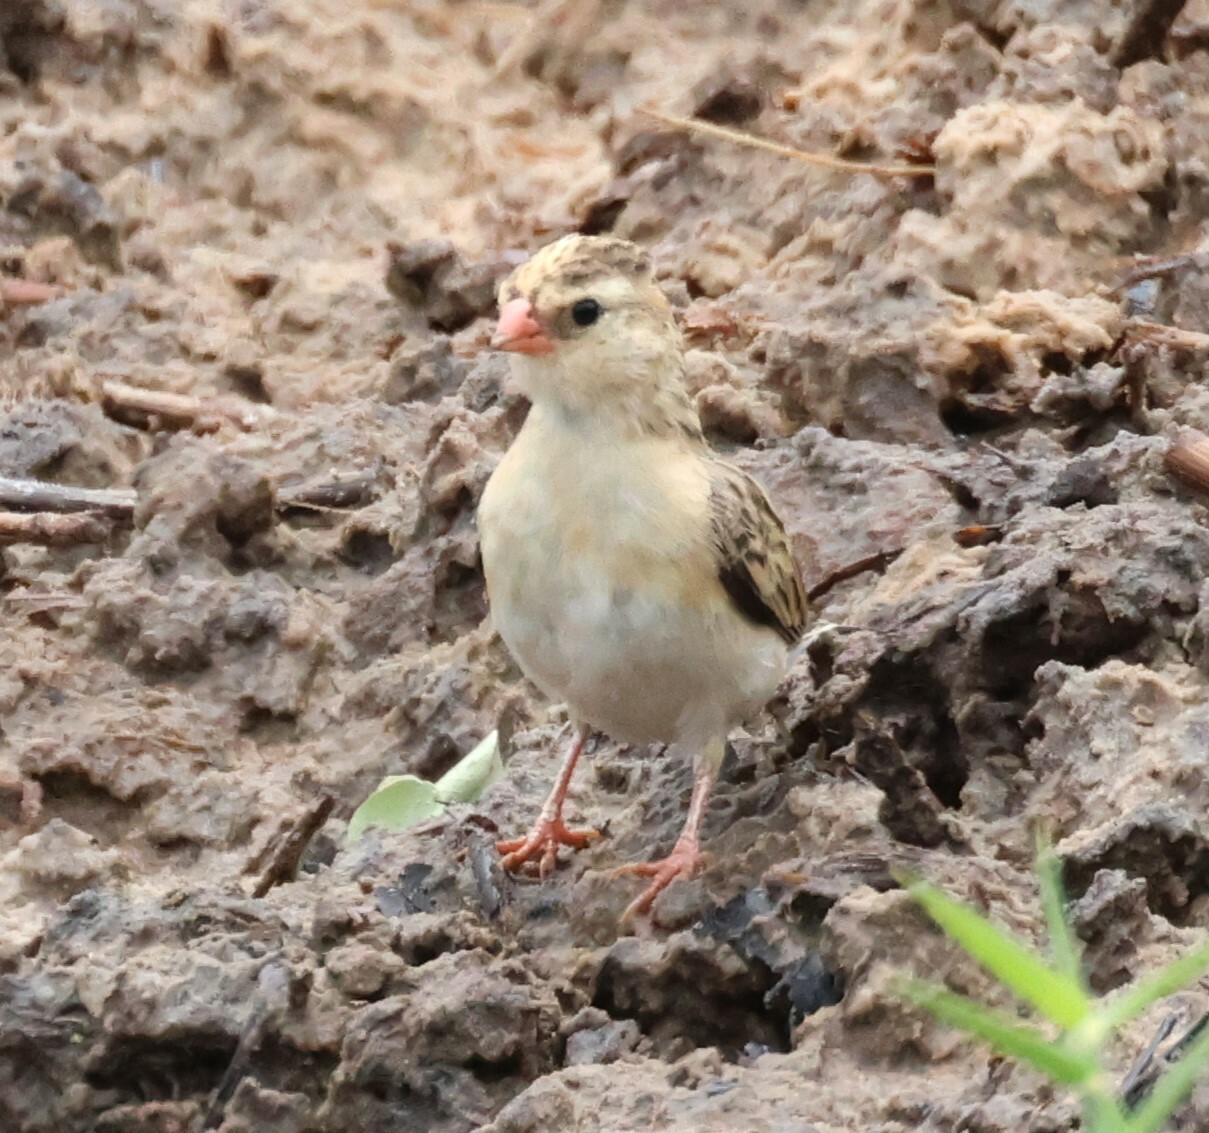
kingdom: Animalia
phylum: Chordata
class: Aves
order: Passeriformes
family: Viduidae
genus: Vidua
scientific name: Vidua regia
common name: Shaft-tailed whydah
